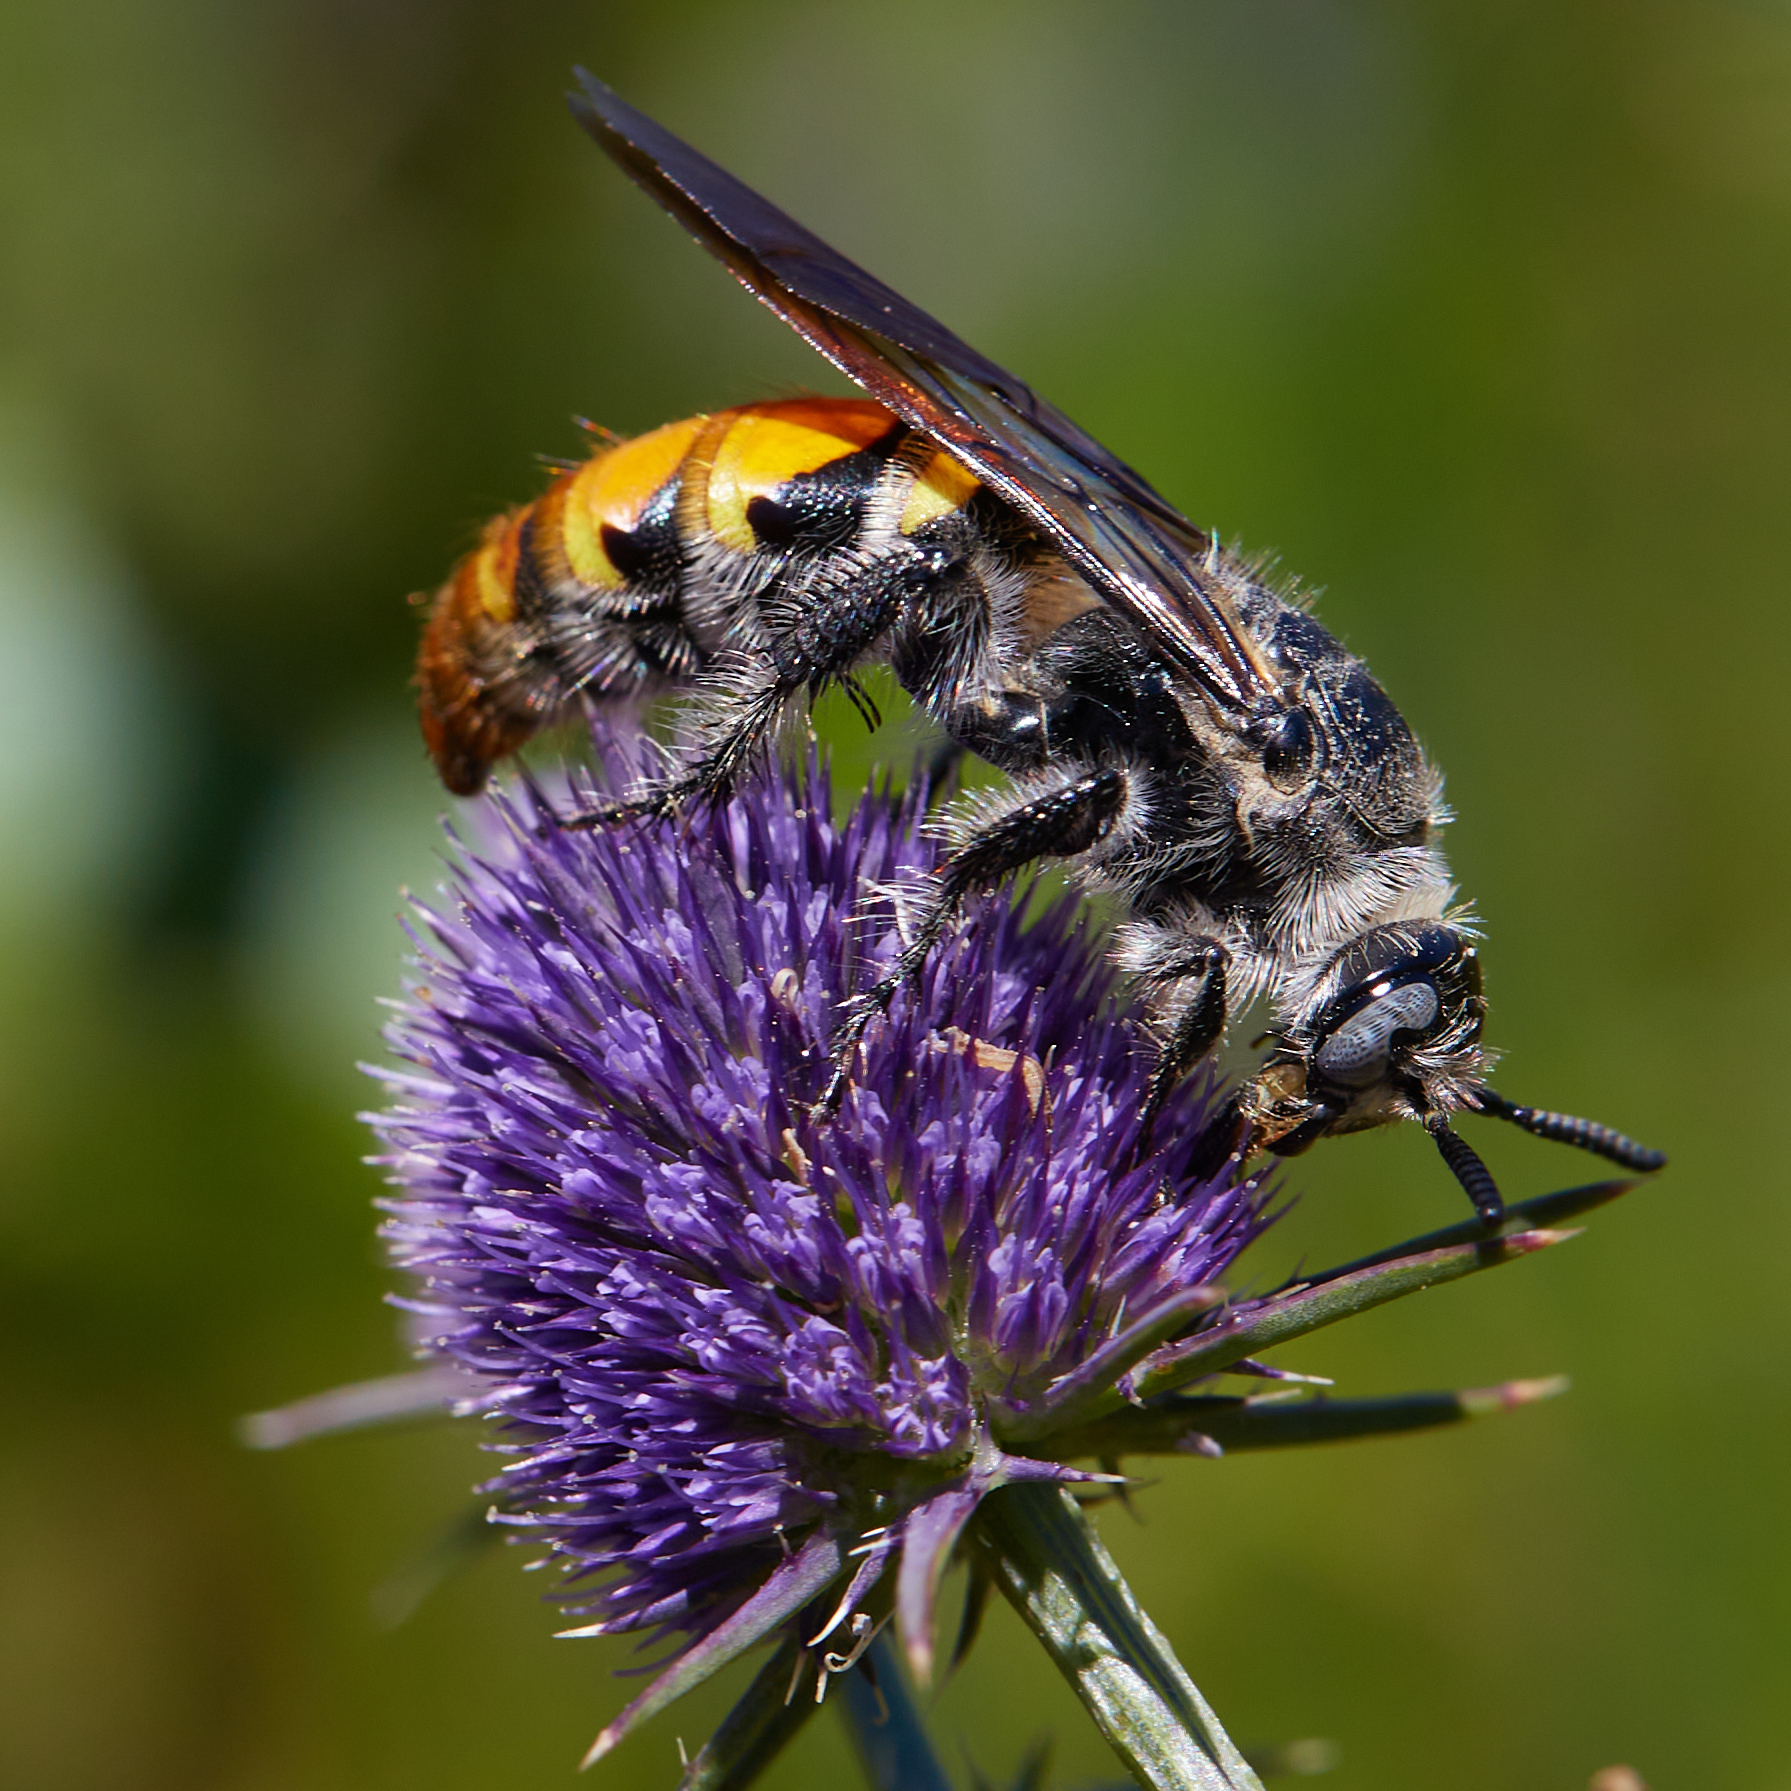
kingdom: Animalia
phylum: Arthropoda
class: Insecta
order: Hymenoptera
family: Scoliidae
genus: Dielis
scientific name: Dielis tolteca
